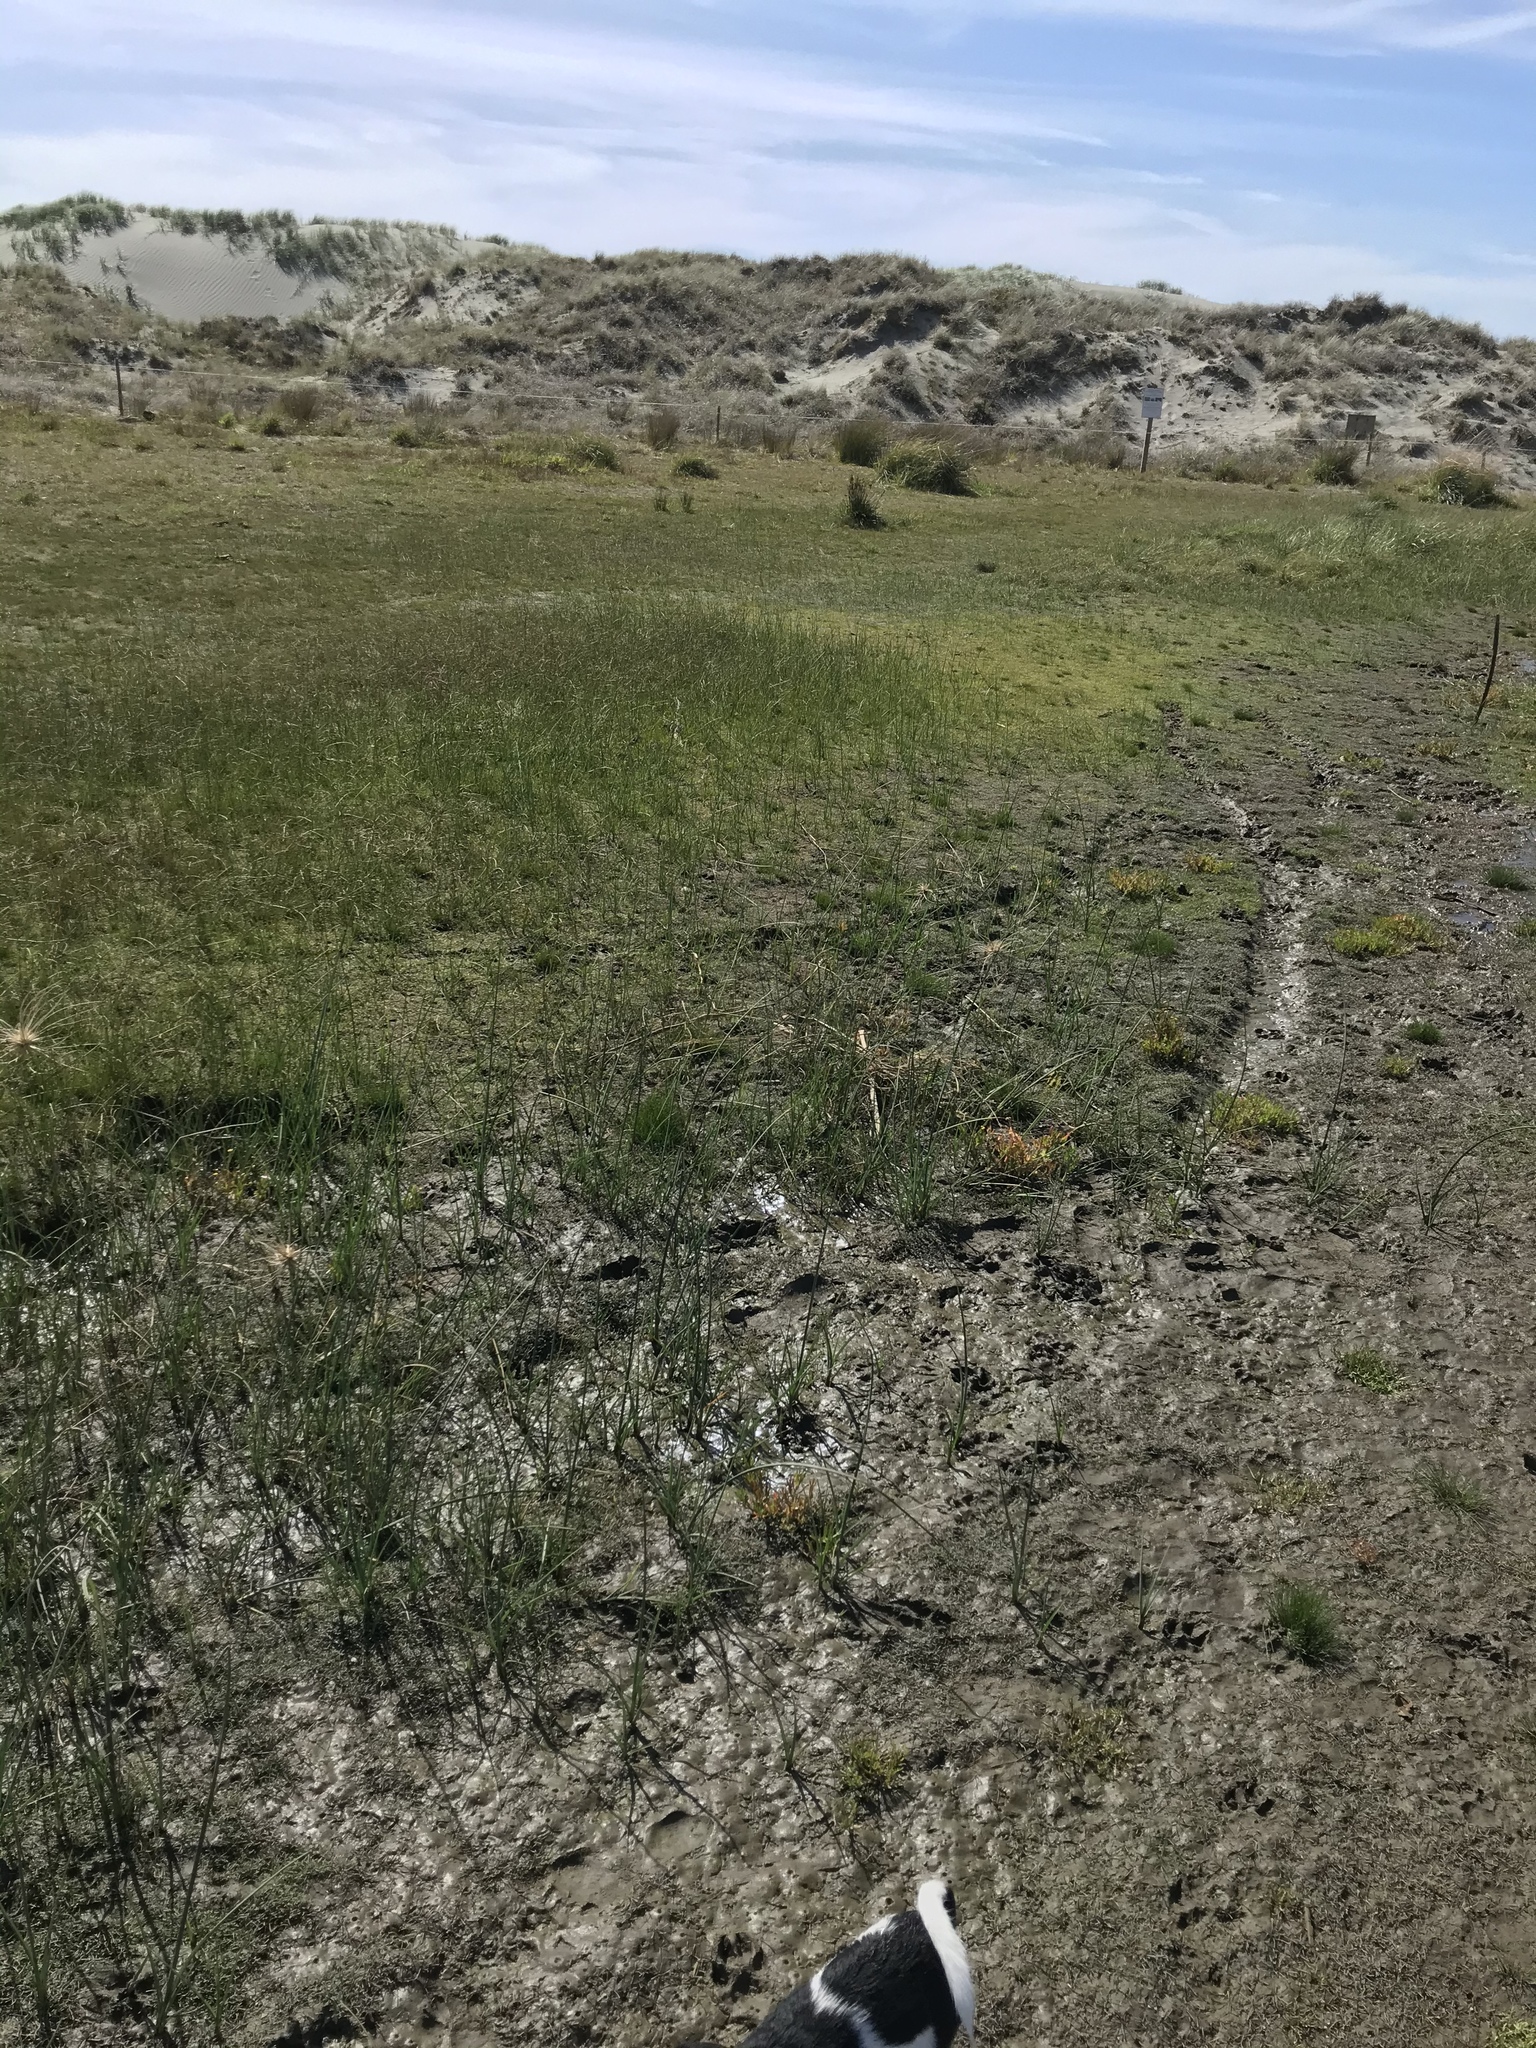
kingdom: Plantae
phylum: Tracheophyta
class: Magnoliopsida
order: Asterales
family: Campanulaceae
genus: Lobelia
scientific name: Lobelia anceps
